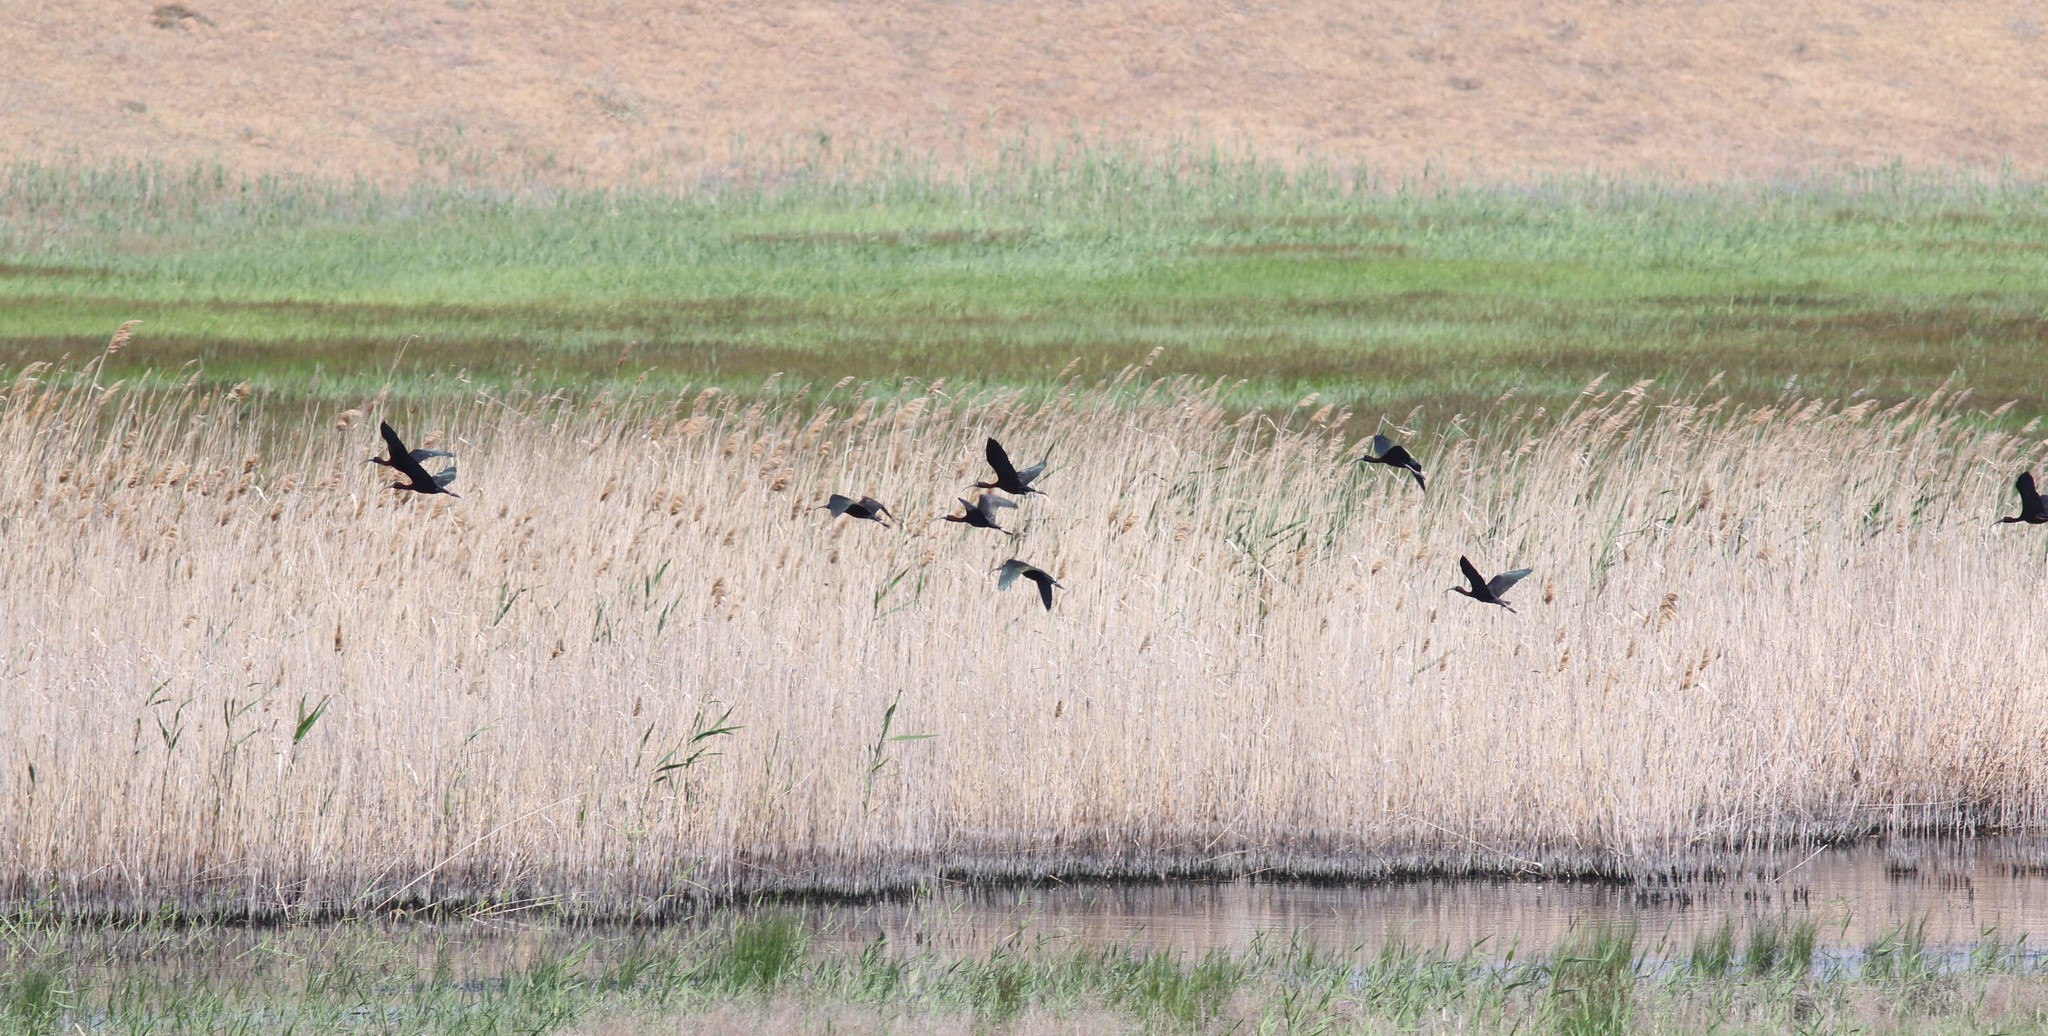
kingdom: Animalia
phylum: Chordata
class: Aves
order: Pelecaniformes
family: Threskiornithidae
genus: Plegadis
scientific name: Plegadis falcinellus
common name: Glossy ibis
